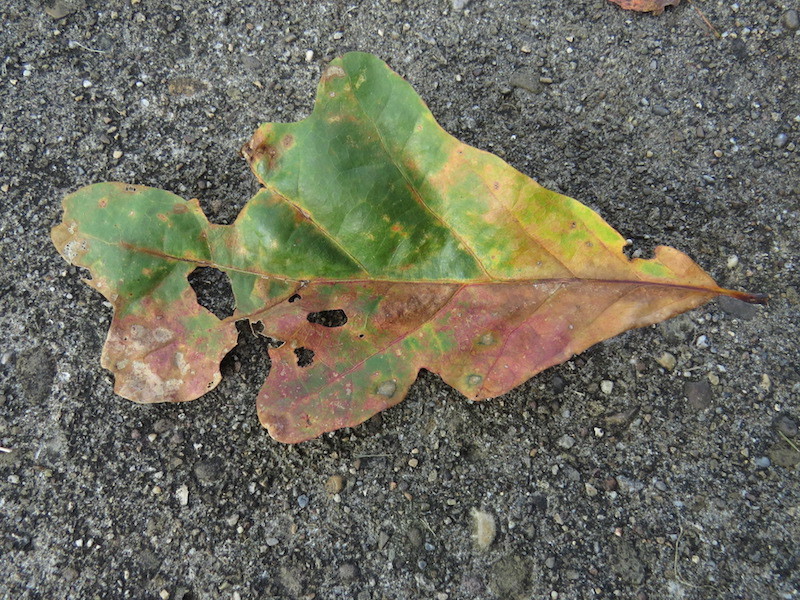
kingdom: Animalia
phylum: Arthropoda
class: Insecta
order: Hymenoptera
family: Cynipidae
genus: Phylloteras
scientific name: Phylloteras poculum
